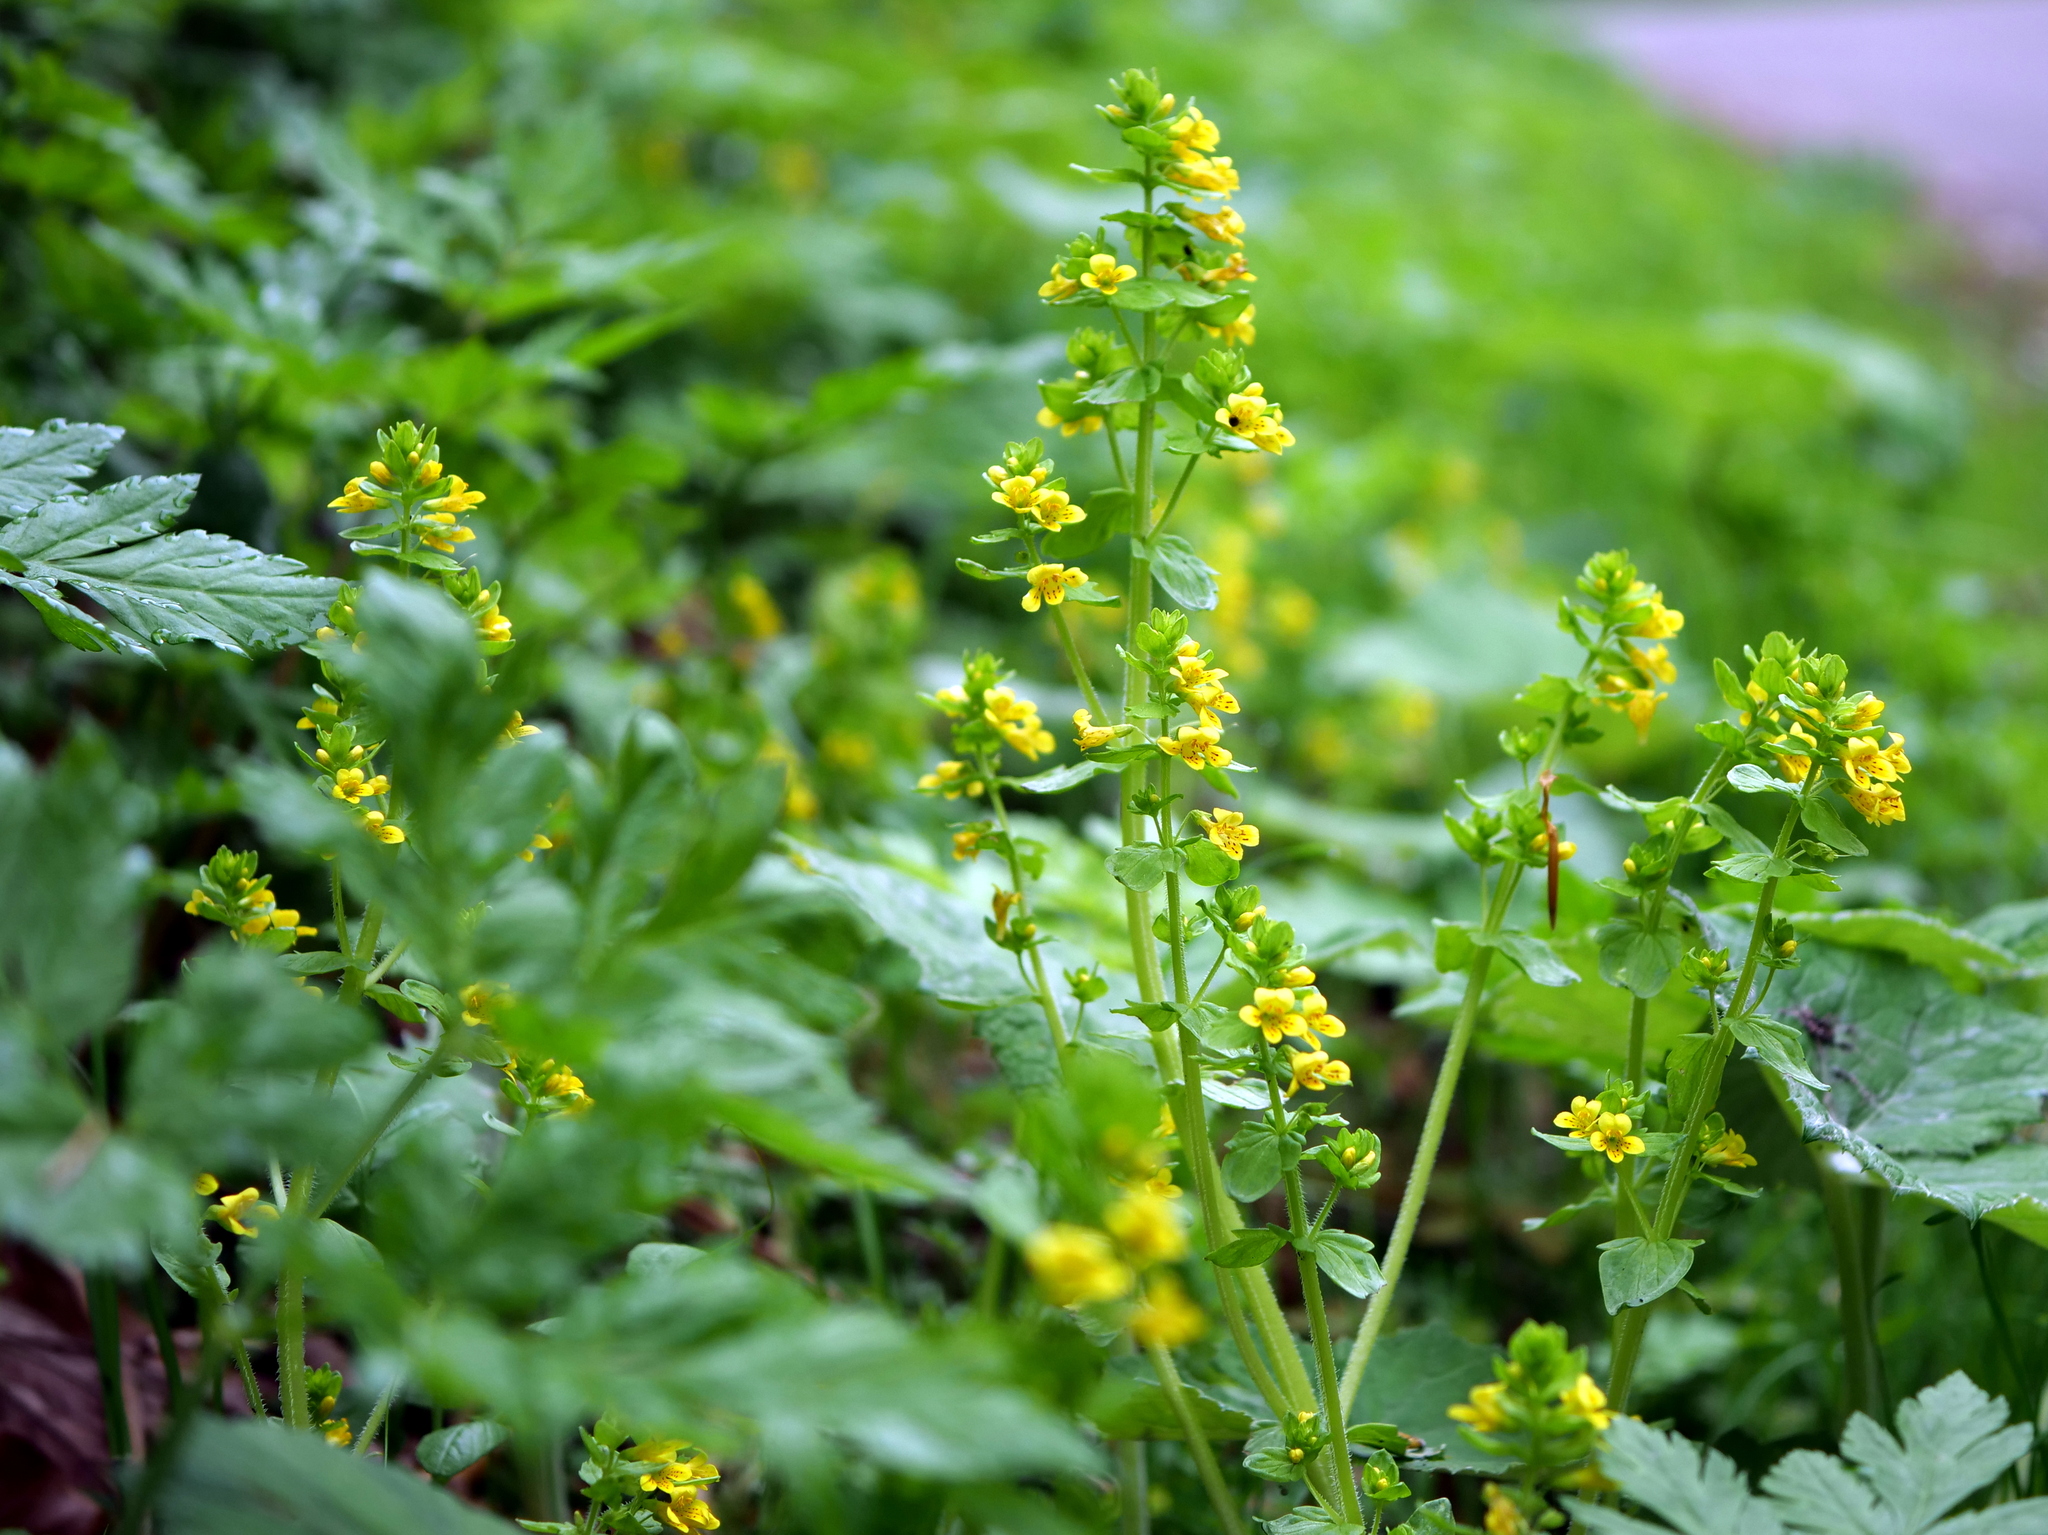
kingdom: Plantae
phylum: Tracheophyta
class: Magnoliopsida
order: Lamiales
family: Orobanchaceae
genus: Tozzia
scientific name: Tozzia alpina
